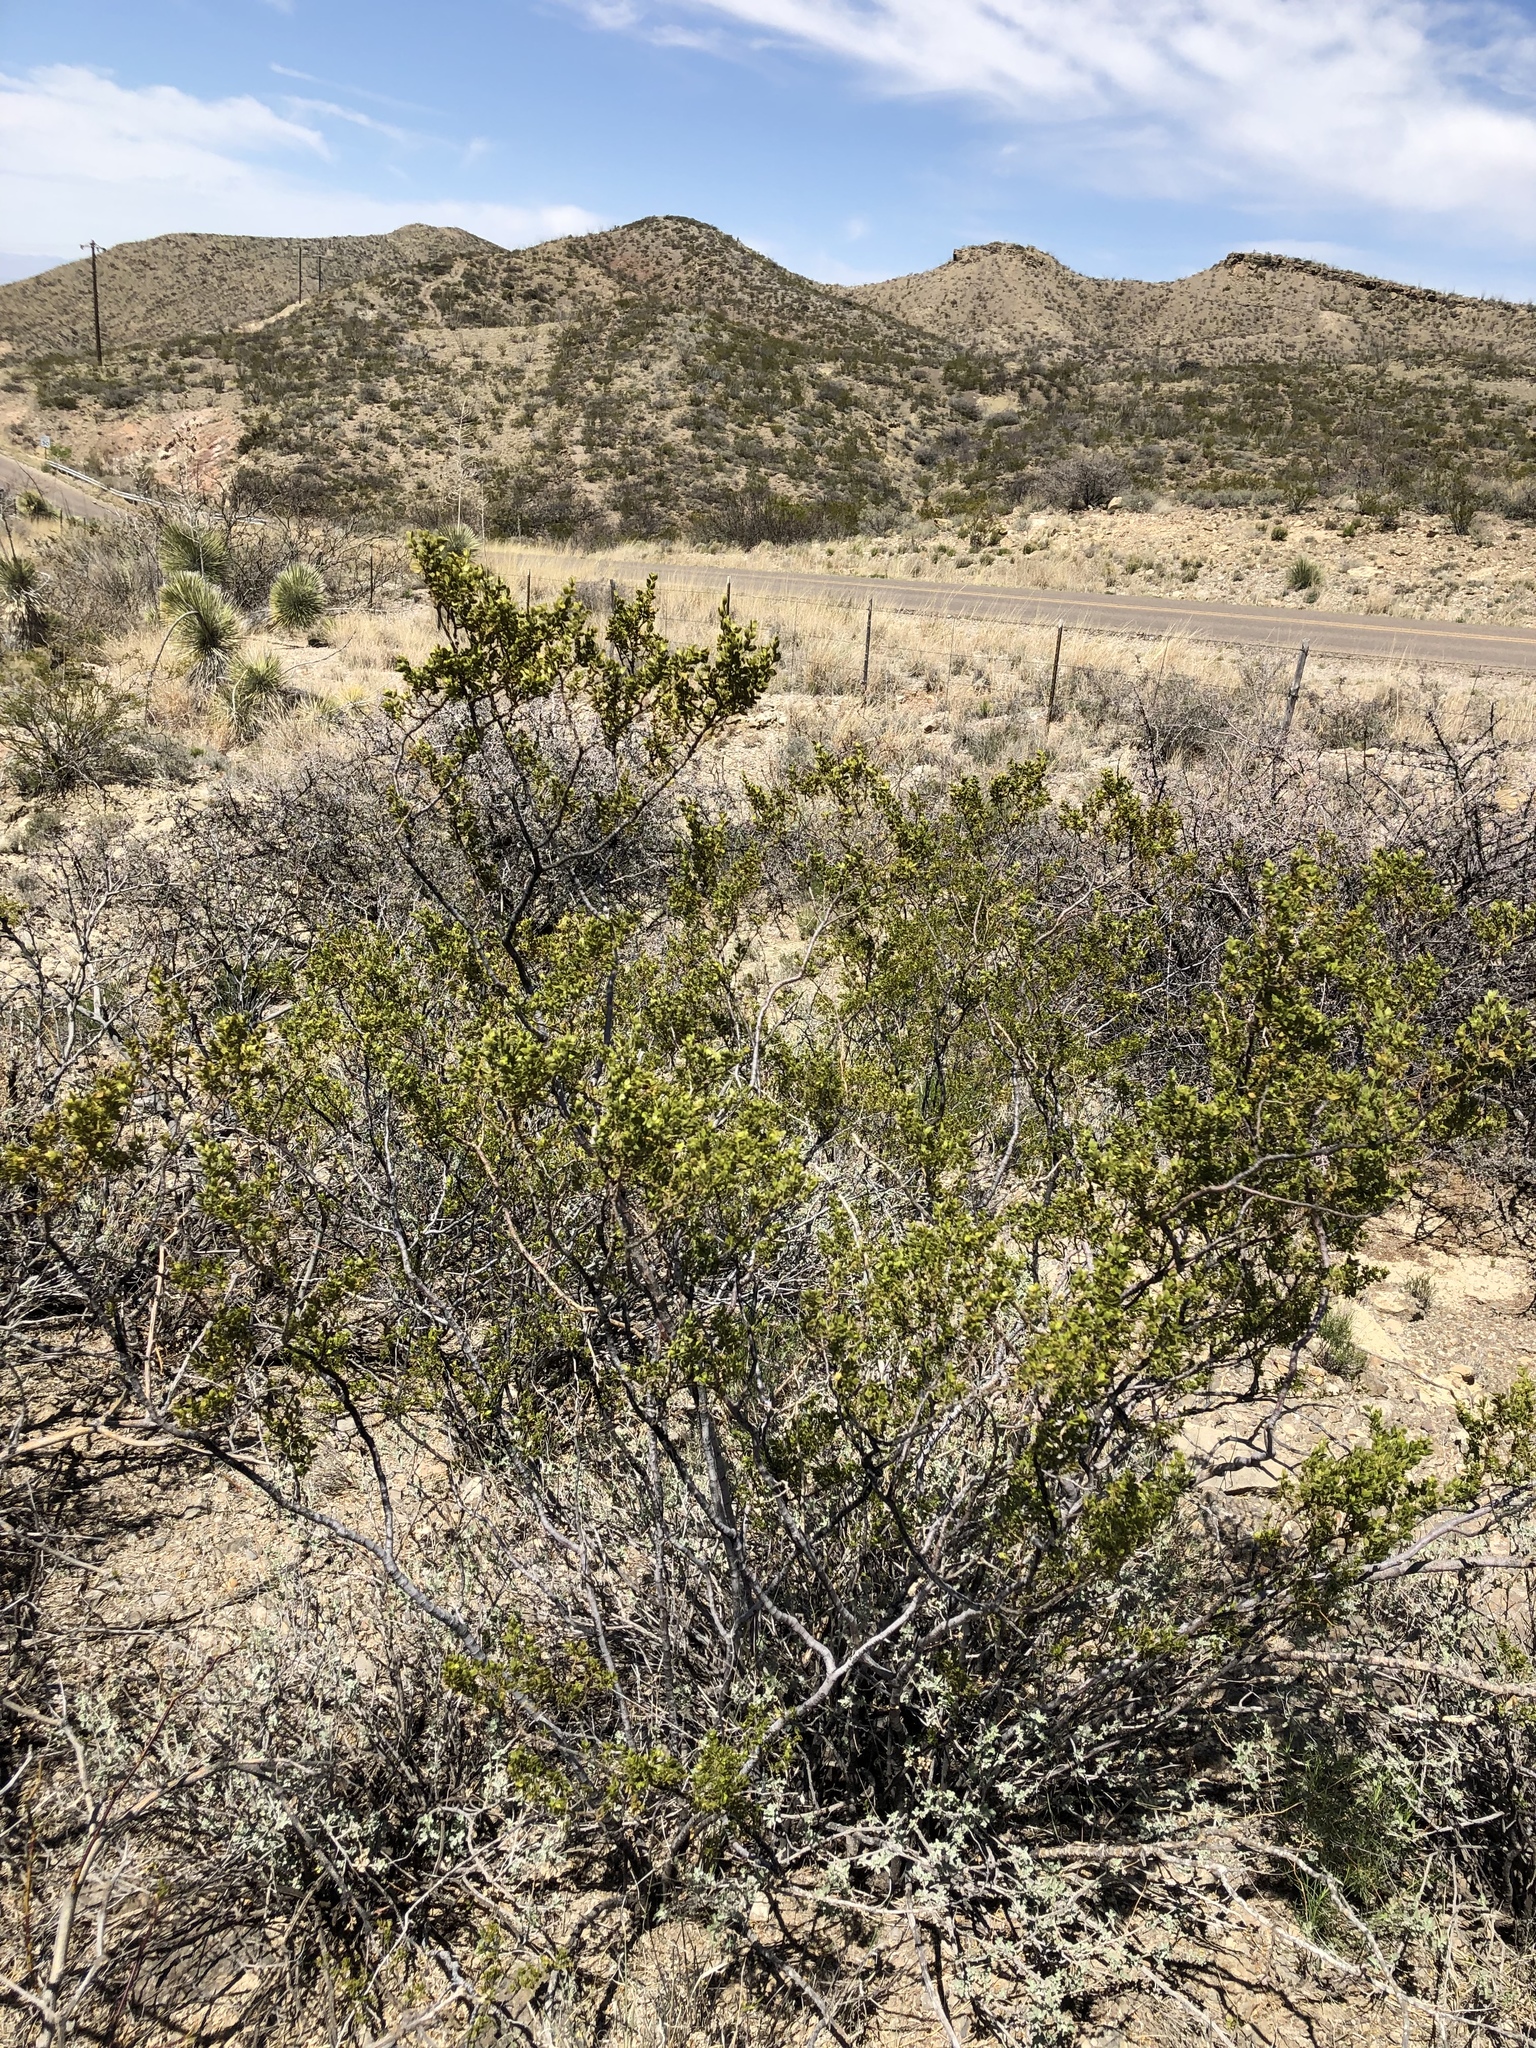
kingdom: Plantae
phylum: Tracheophyta
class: Magnoliopsida
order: Zygophyllales
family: Zygophyllaceae
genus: Larrea
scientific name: Larrea tridentata
